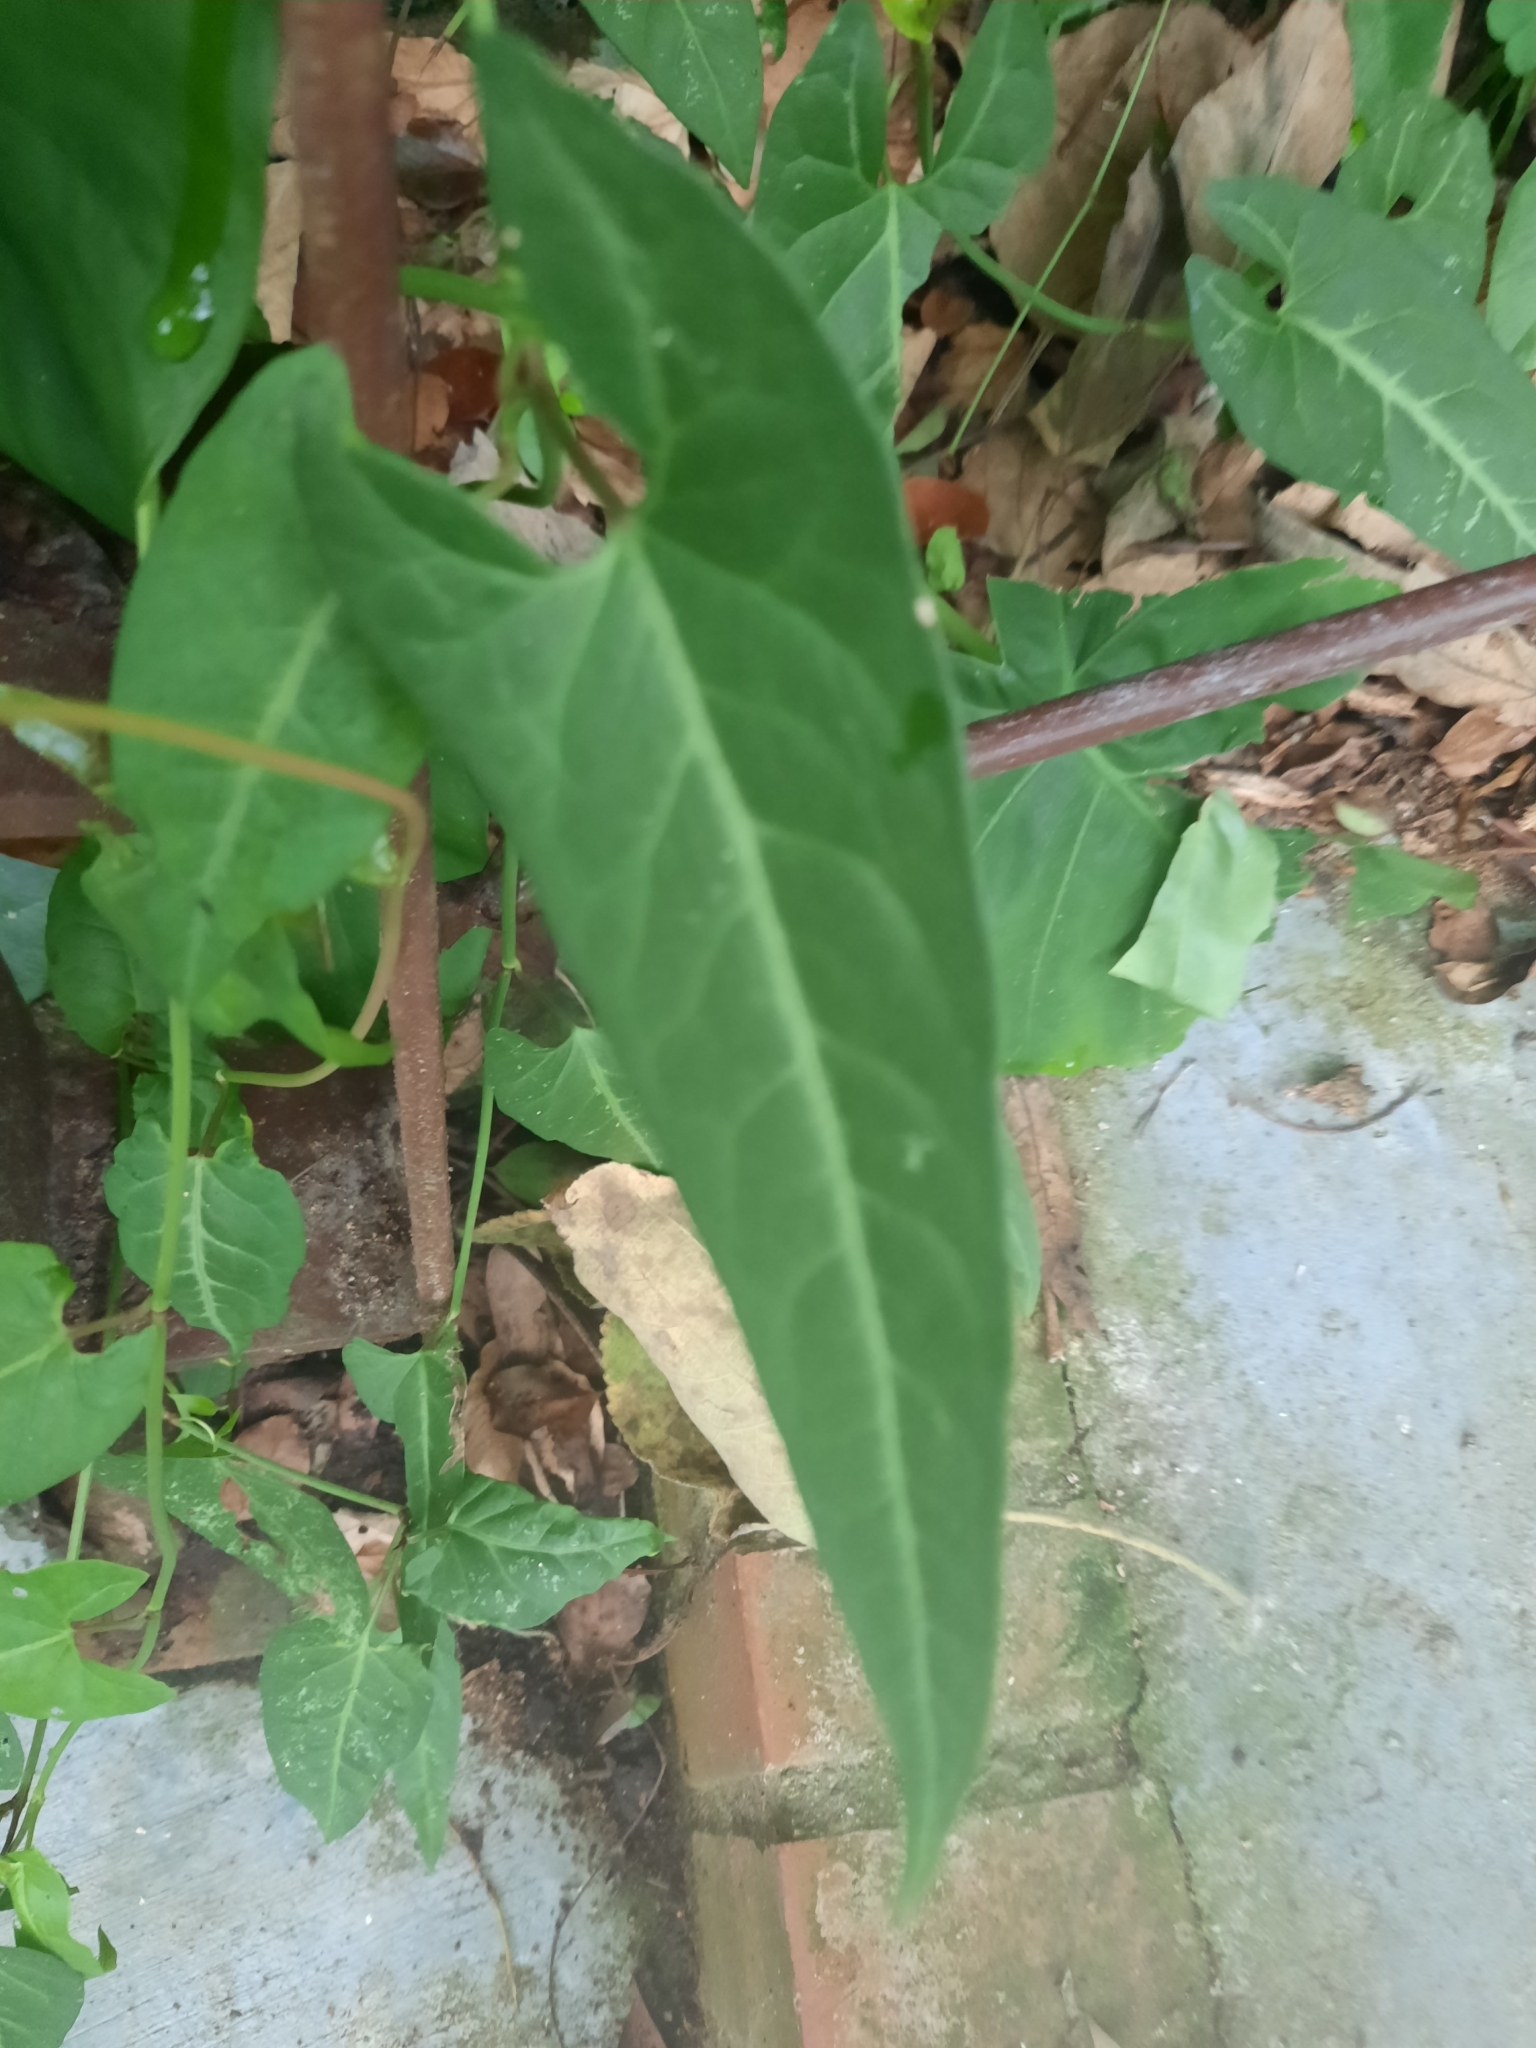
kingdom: Plantae
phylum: Tracheophyta
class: Magnoliopsida
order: Caryophyllales
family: Polygonaceae
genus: Reynoutria
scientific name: Reynoutria multiflora
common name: Chinese fleeceflower
